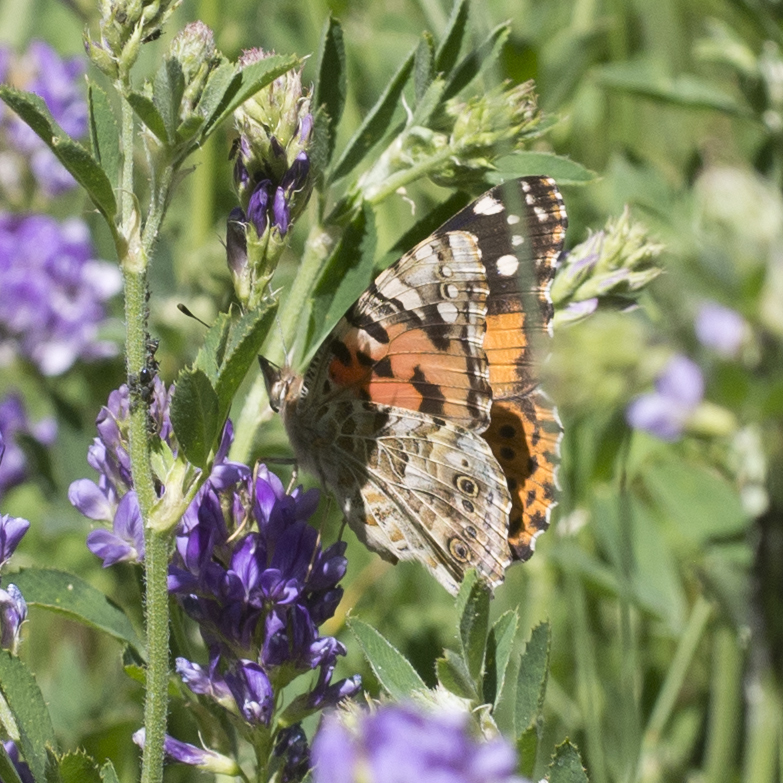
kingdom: Animalia
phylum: Arthropoda
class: Insecta
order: Lepidoptera
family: Nymphalidae
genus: Vanessa
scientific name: Vanessa cardui
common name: Painted lady
